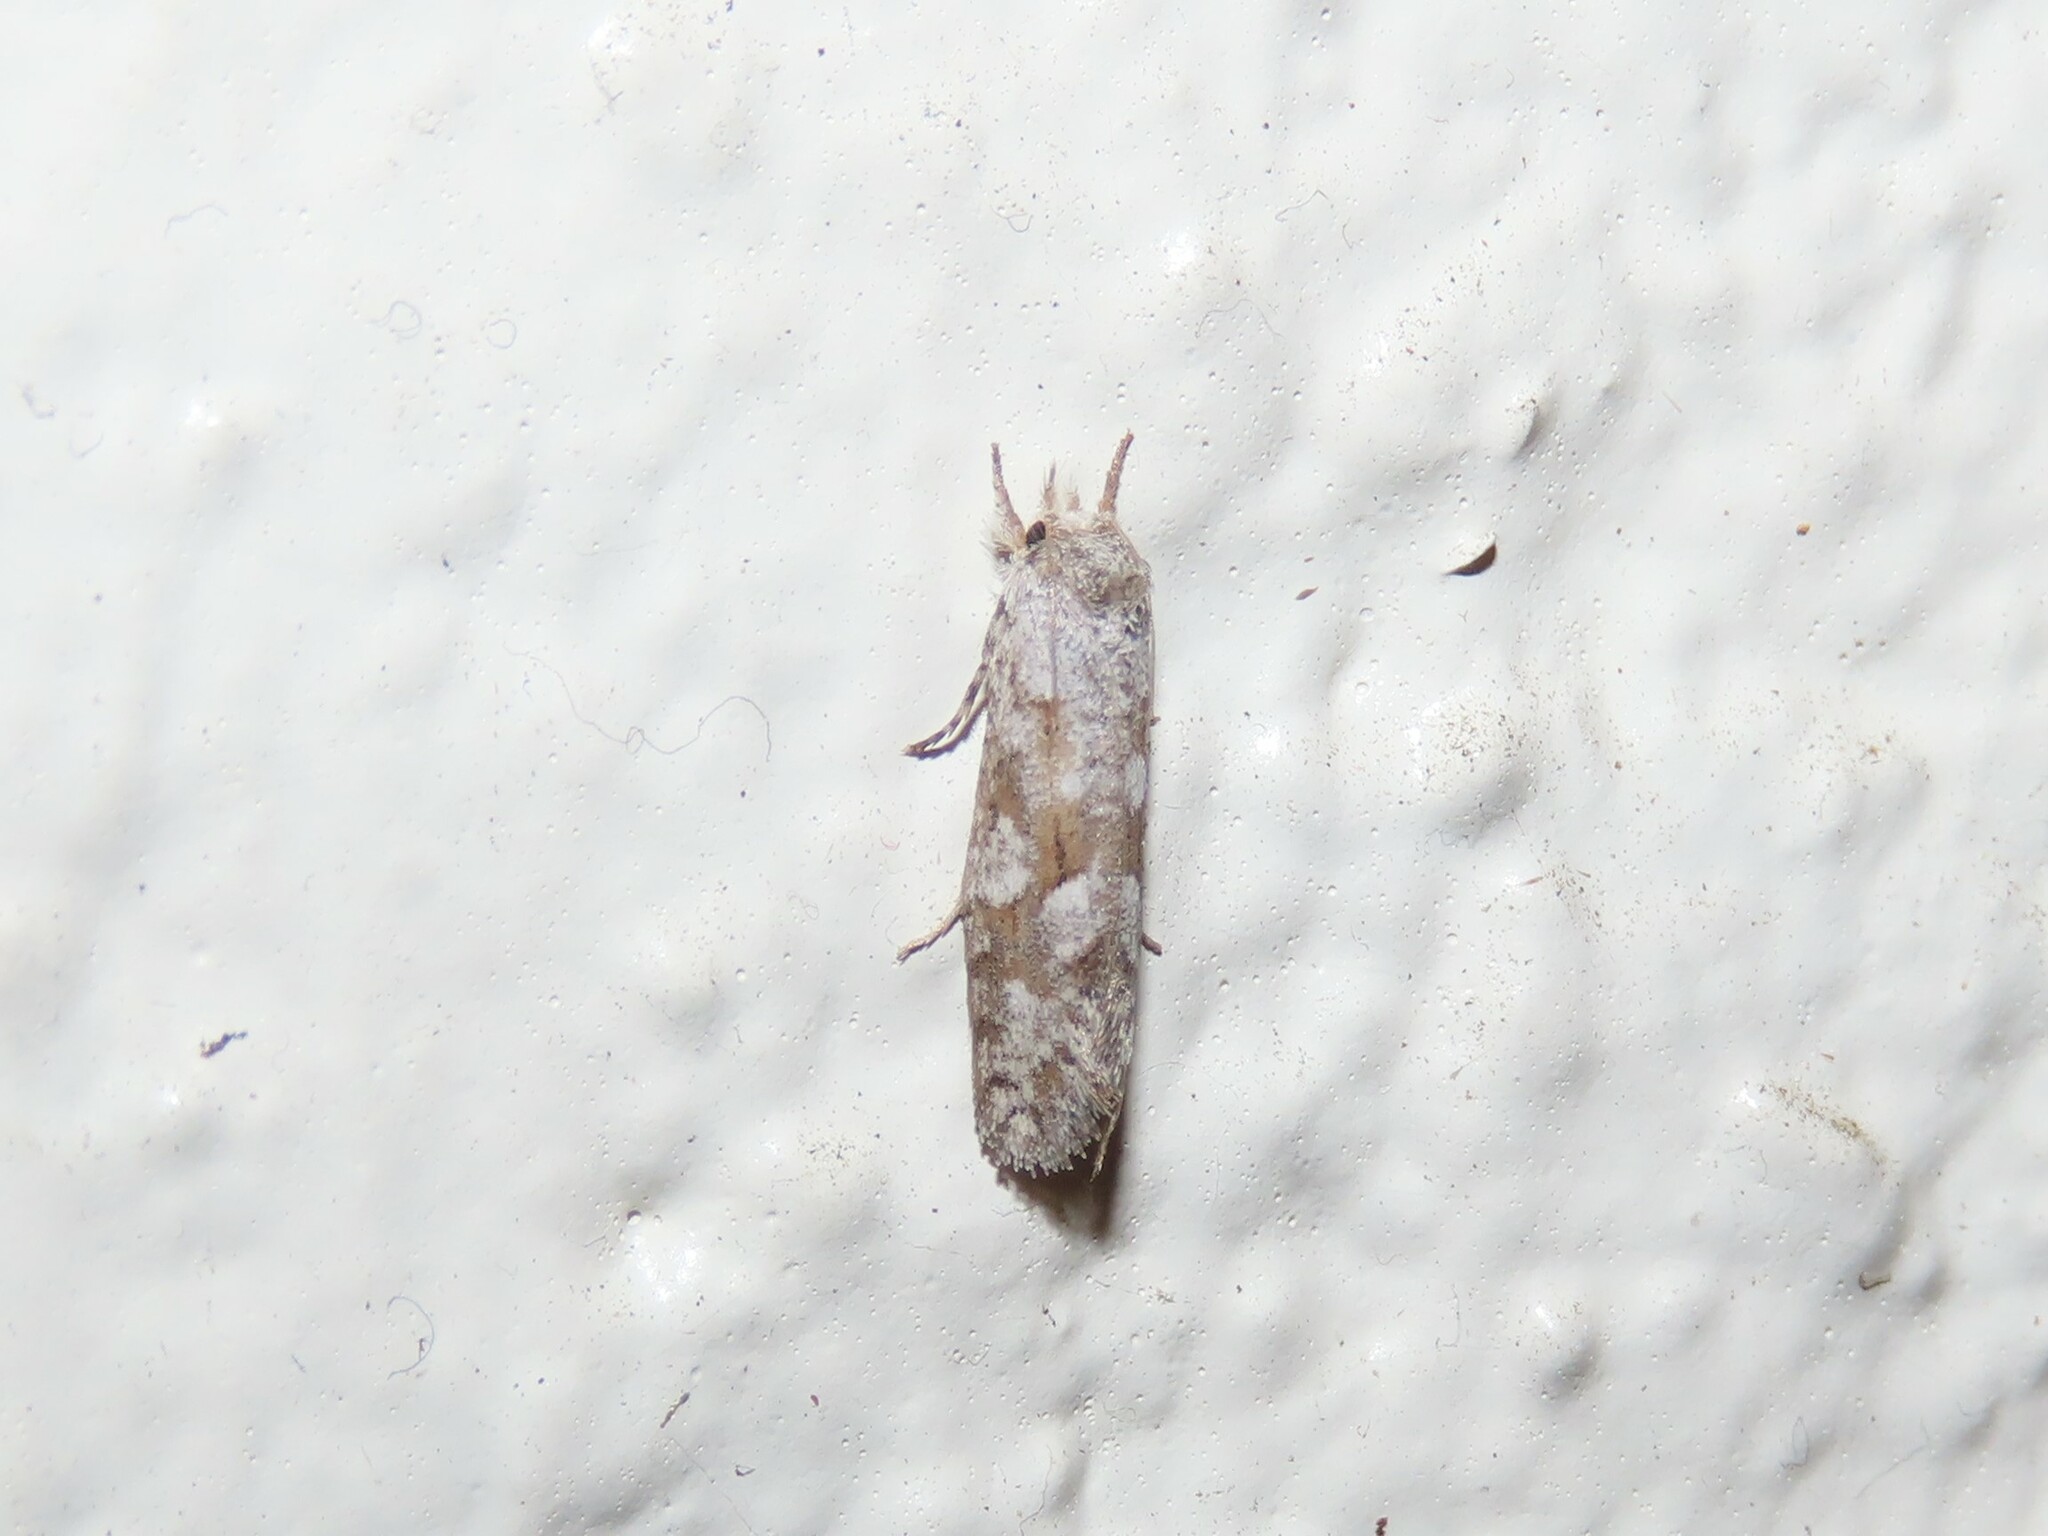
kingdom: Animalia
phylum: Arthropoda
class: Insecta
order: Lepidoptera
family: Tineidae
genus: Acrolophus
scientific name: Acrolophus forbesi
